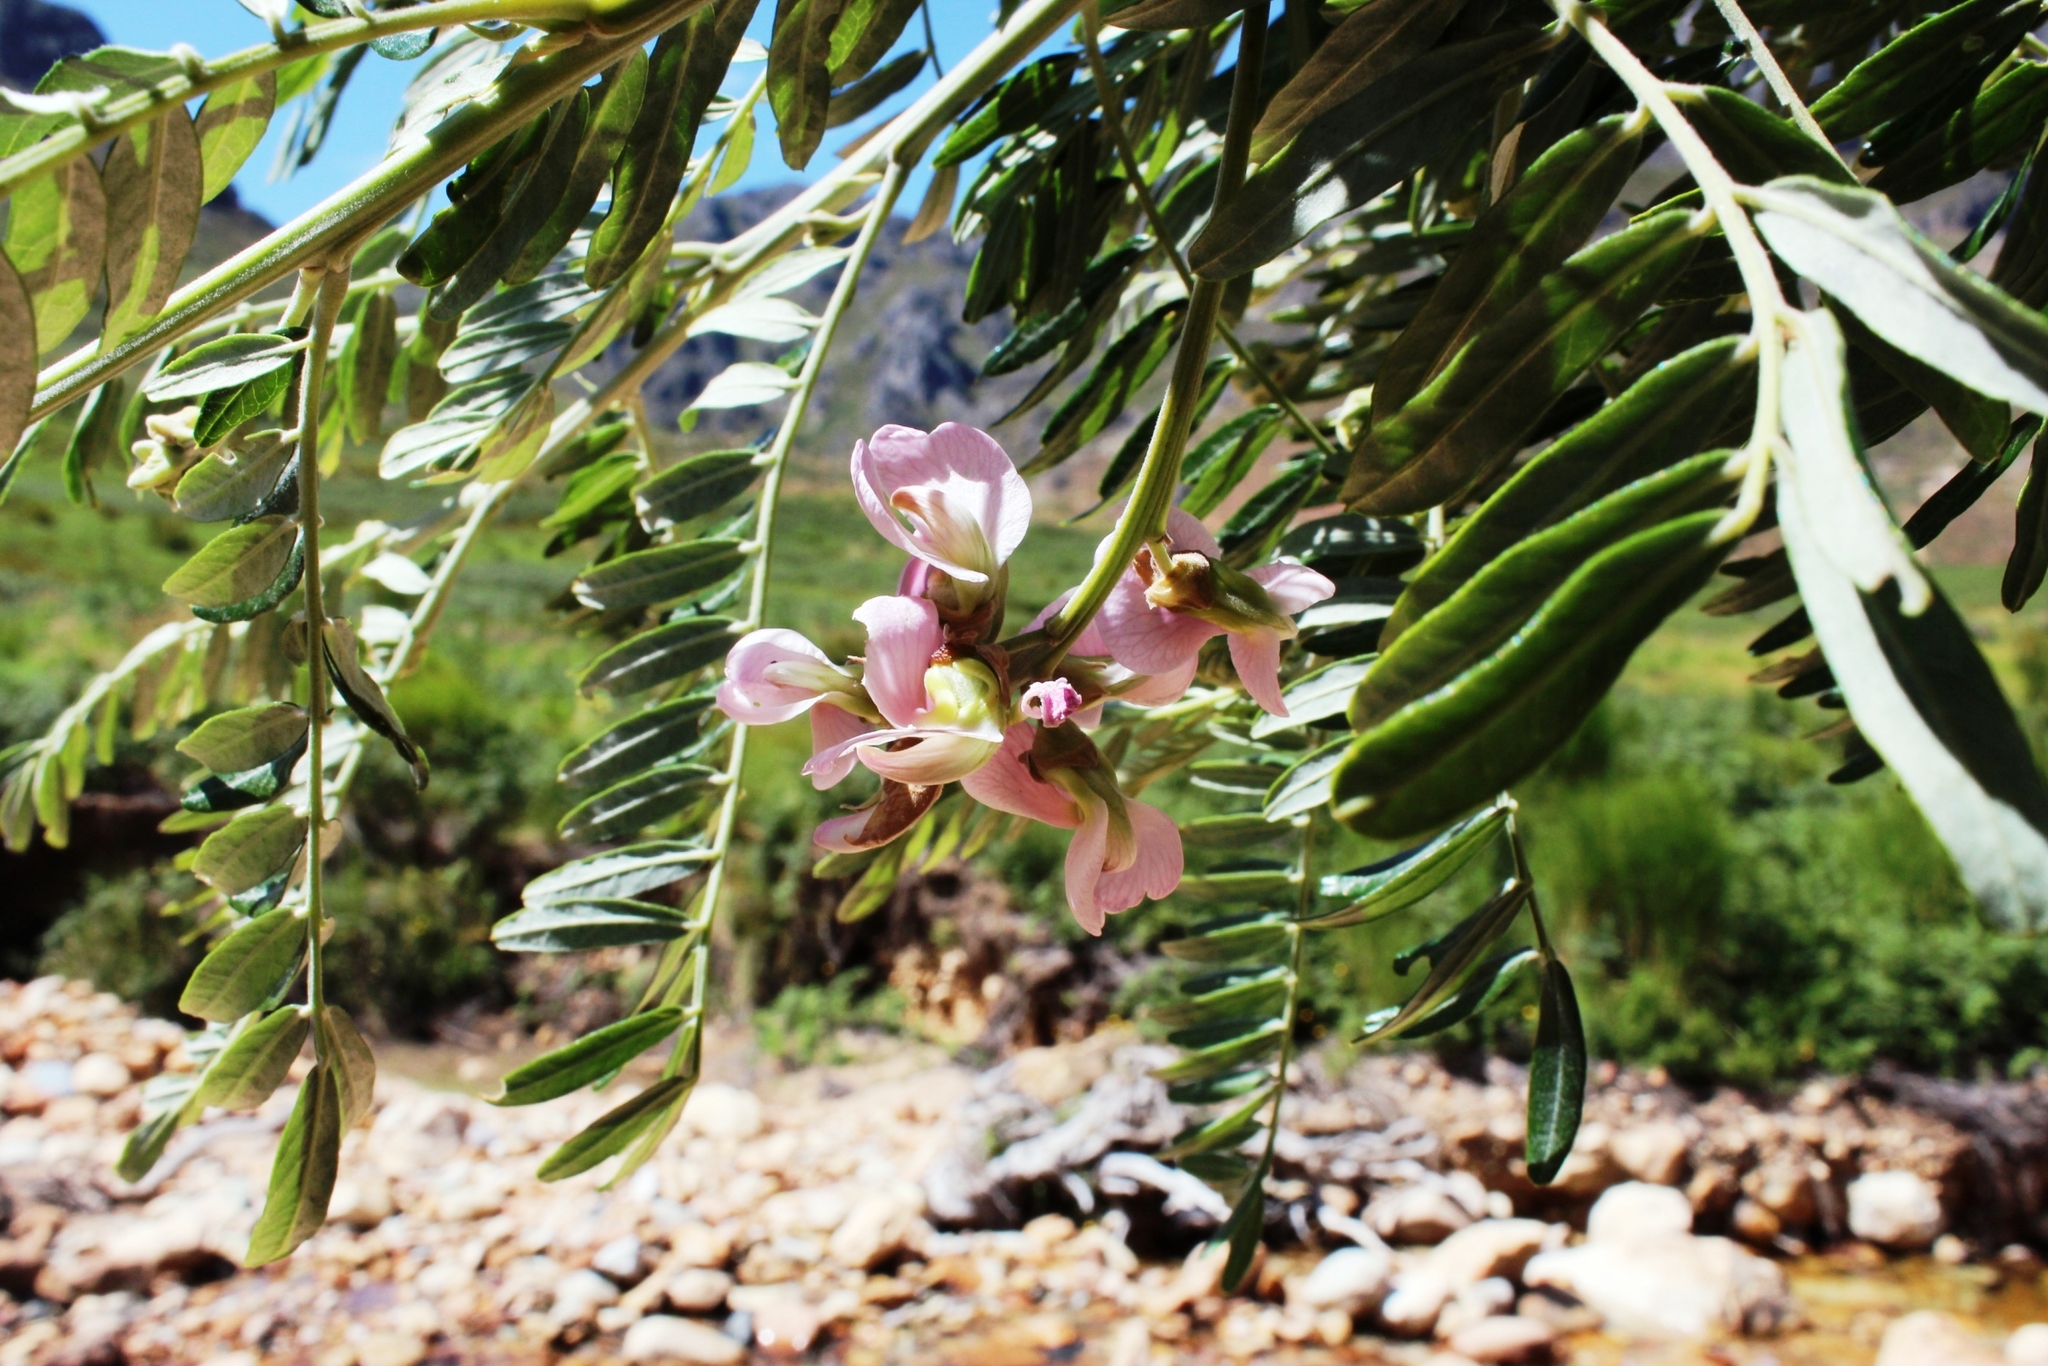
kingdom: Plantae
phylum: Tracheophyta
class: Magnoliopsida
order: Fabales
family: Fabaceae
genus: Virgilia
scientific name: Virgilia oroboides
